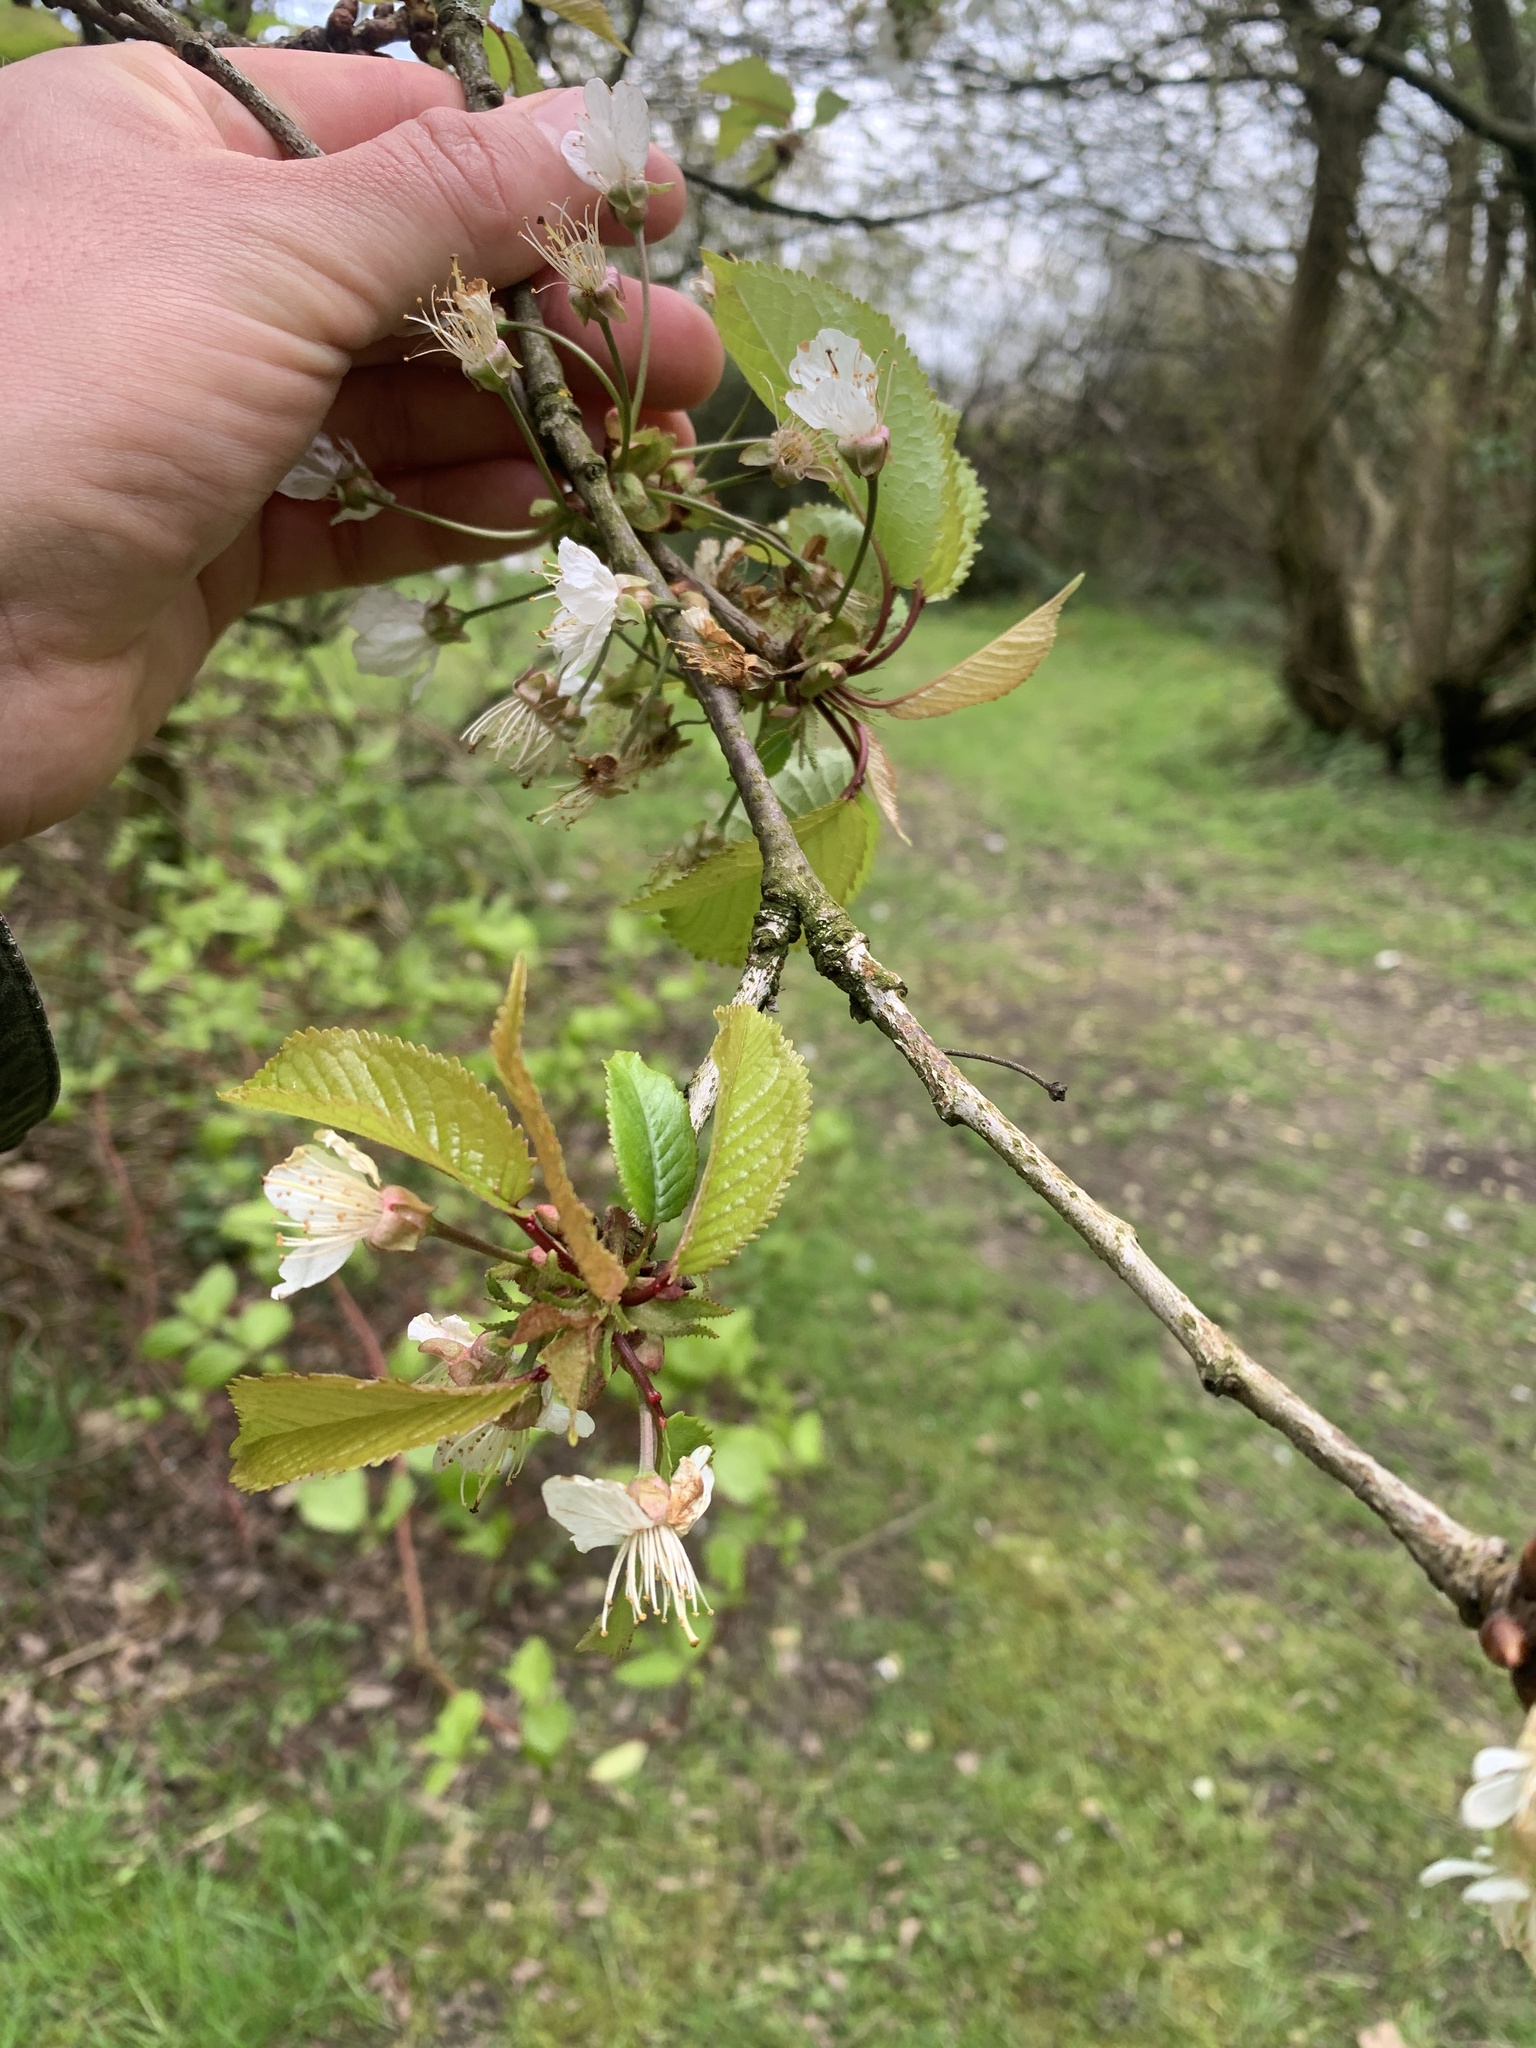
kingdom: Plantae
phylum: Tracheophyta
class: Magnoliopsida
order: Rosales
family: Rosaceae
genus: Prunus
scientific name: Prunus avium
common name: Sweet cherry
